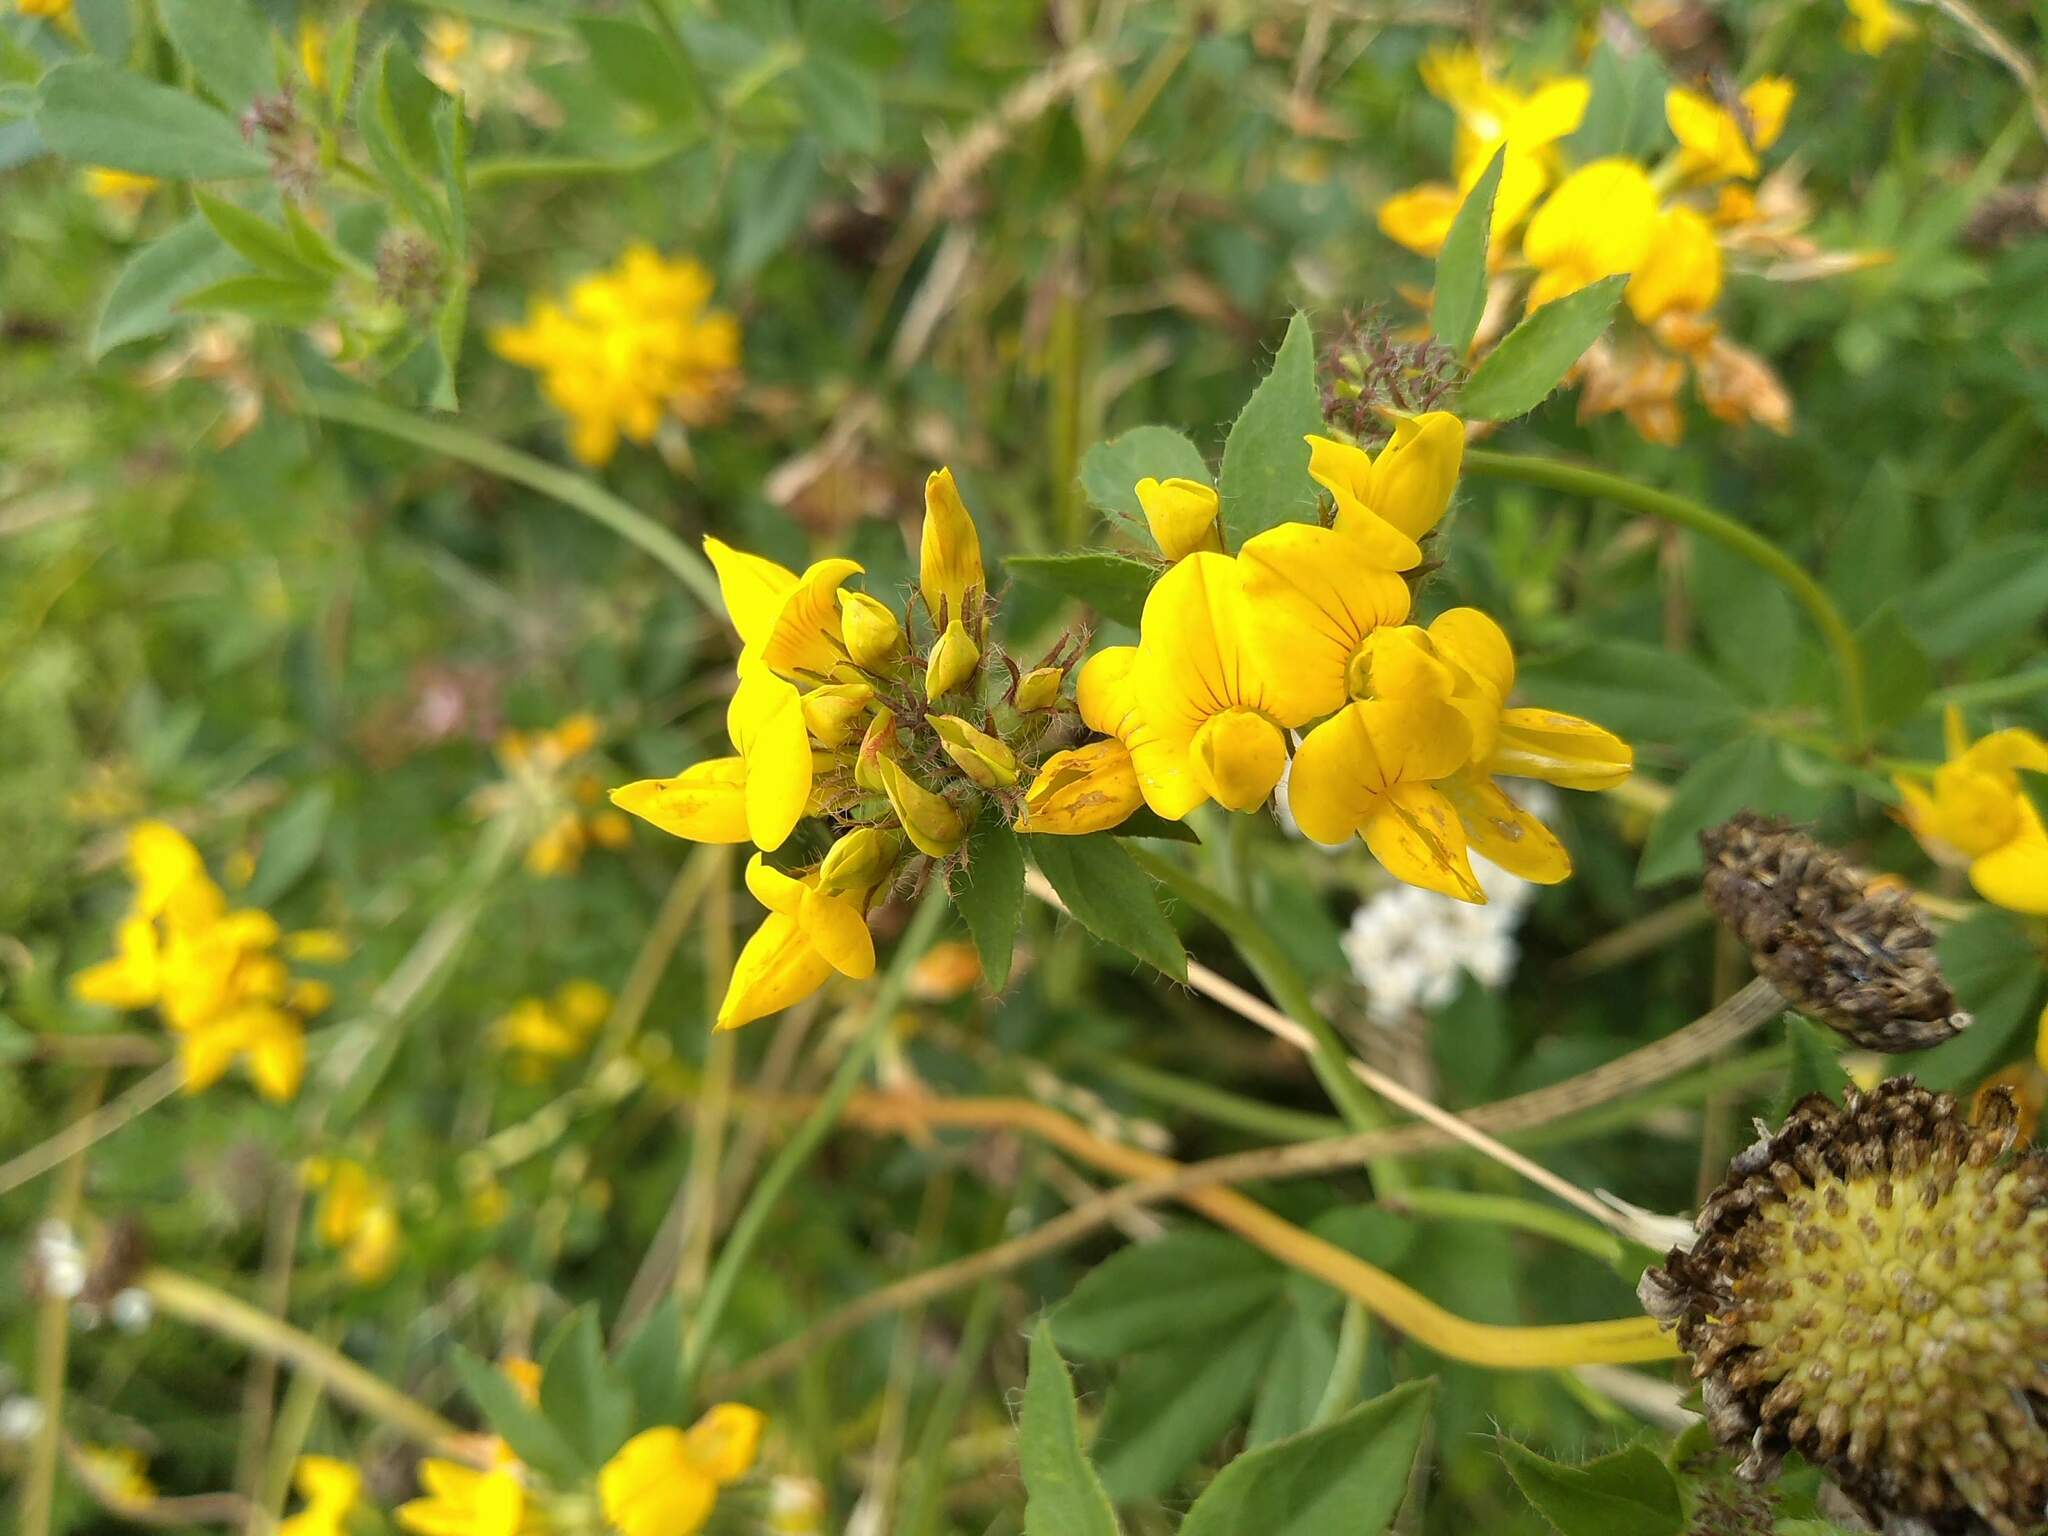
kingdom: Plantae
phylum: Tracheophyta
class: Magnoliopsida
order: Fabales
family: Fabaceae
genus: Lotus
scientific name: Lotus pedunculatus
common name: Greater birdsfoot-trefoil
